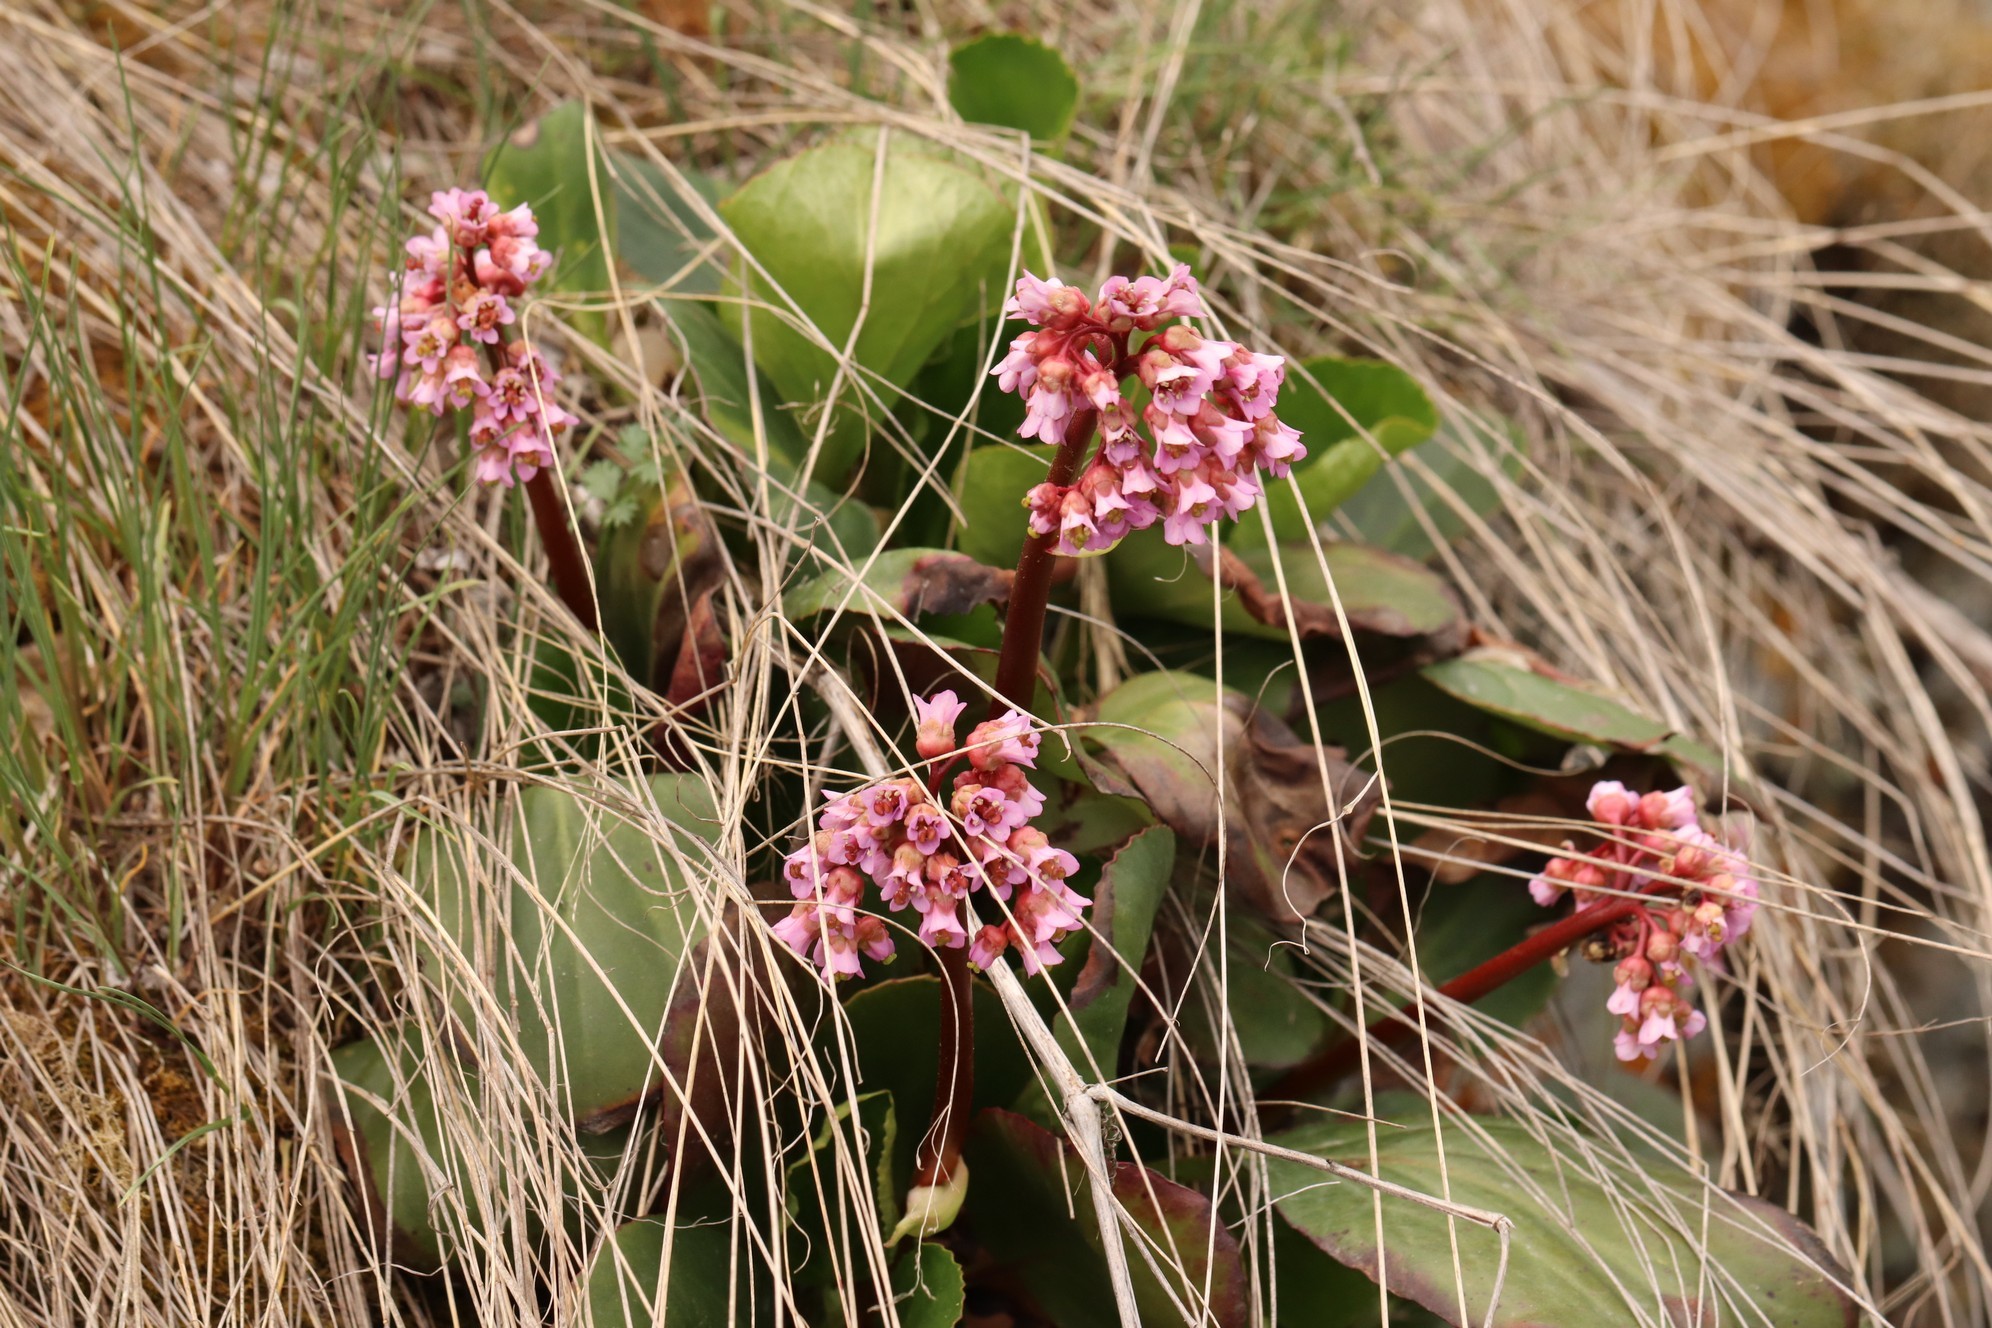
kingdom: Plantae
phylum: Tracheophyta
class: Magnoliopsida
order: Saxifragales
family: Saxifragaceae
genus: Bergenia
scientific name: Bergenia crassifolia
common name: Elephant-ears
